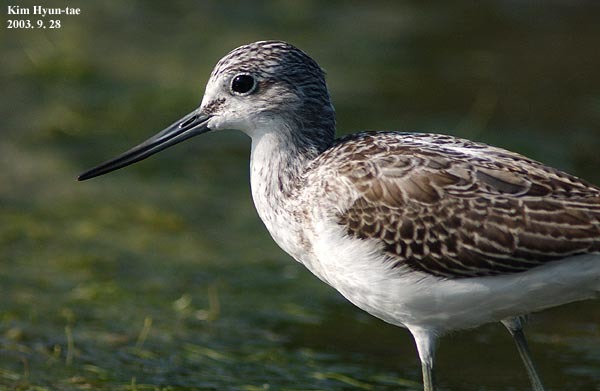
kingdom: Animalia
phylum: Chordata
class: Aves
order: Charadriiformes
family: Scolopacidae
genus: Tringa
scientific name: Tringa nebularia
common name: Common greenshank
